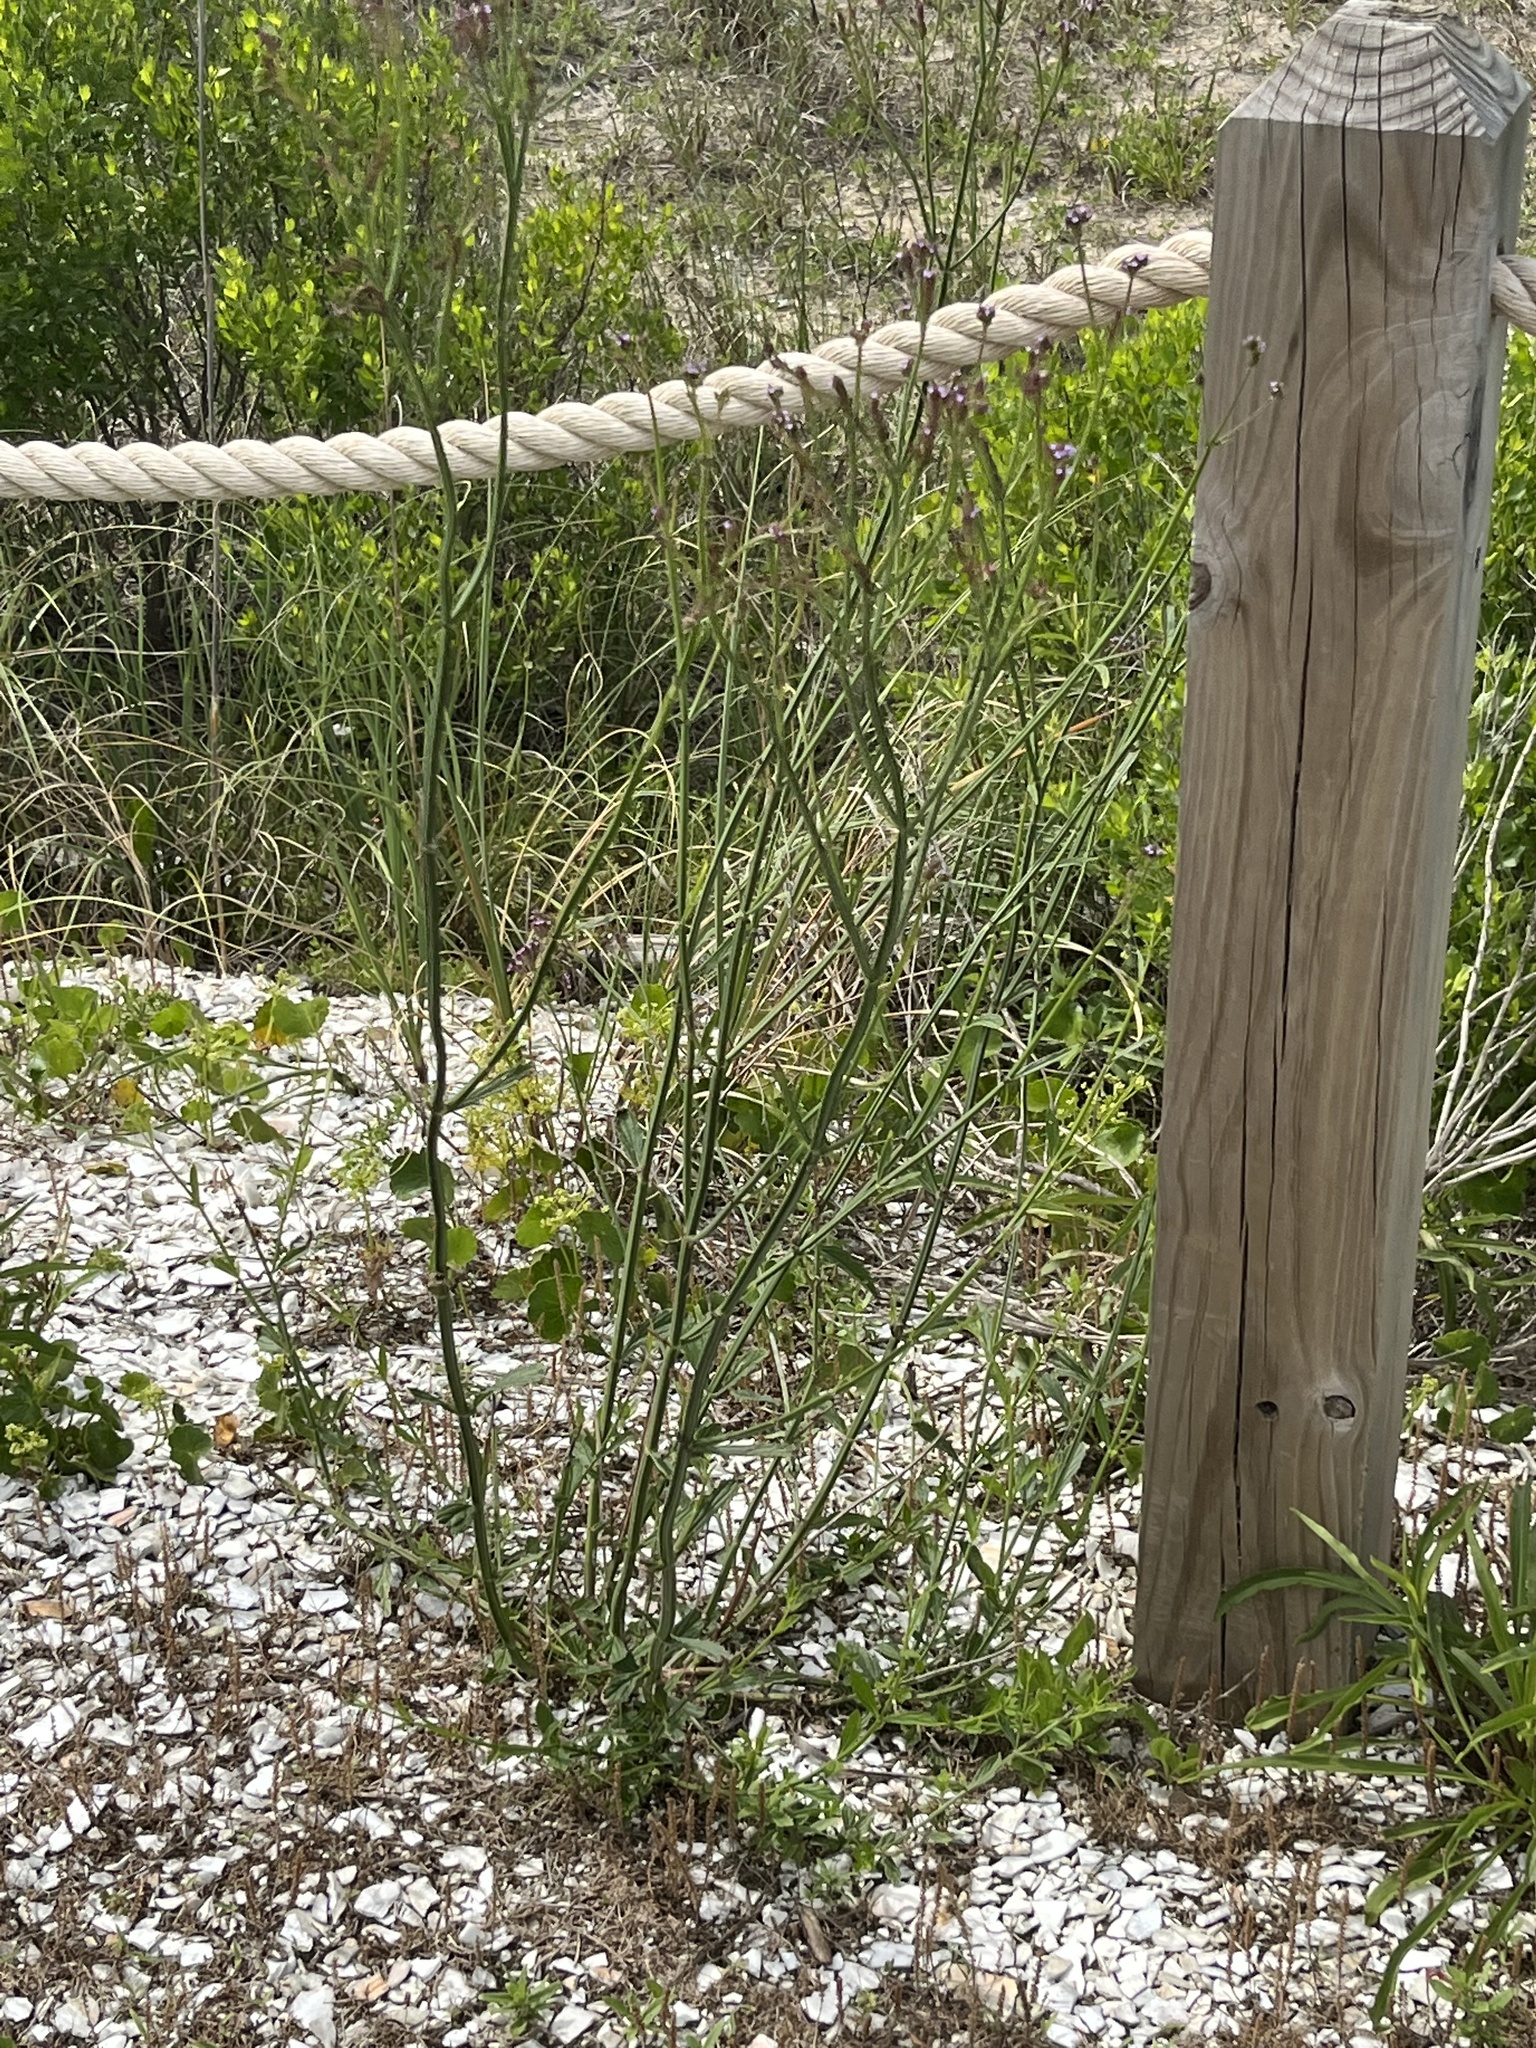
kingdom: Plantae
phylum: Tracheophyta
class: Magnoliopsida
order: Lamiales
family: Verbenaceae
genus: Verbena
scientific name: Verbena brasiliensis
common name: Brazilian vervain
